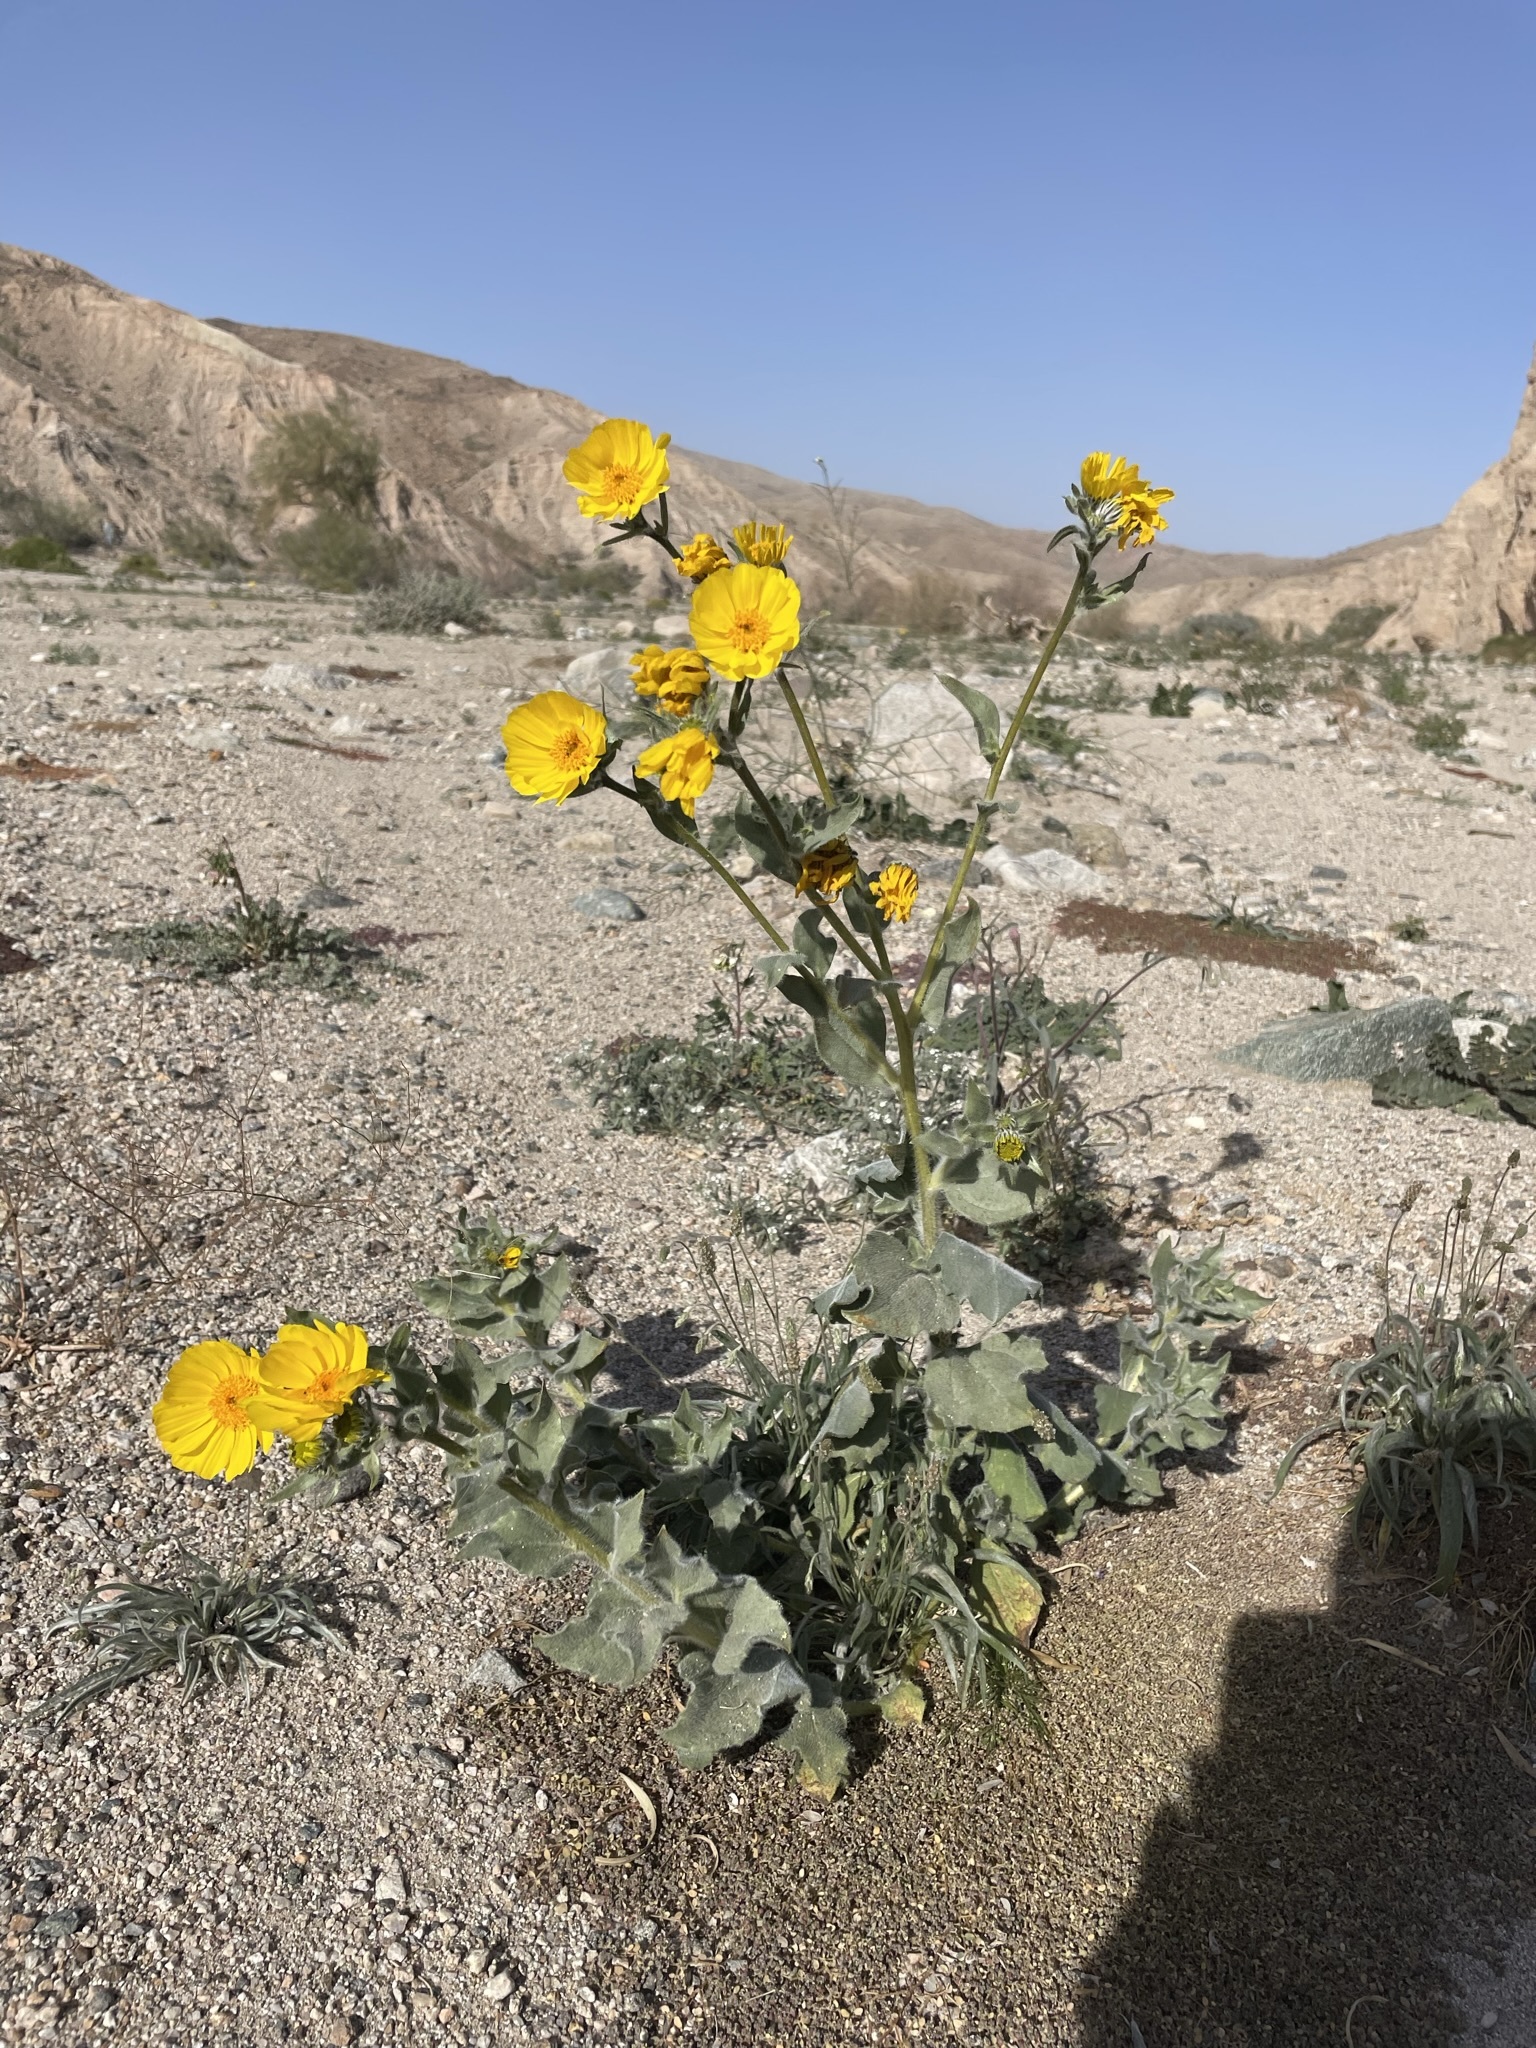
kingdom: Plantae
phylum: Tracheophyta
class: Magnoliopsida
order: Asterales
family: Asteraceae
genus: Geraea
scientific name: Geraea canescens
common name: Desert-gold
